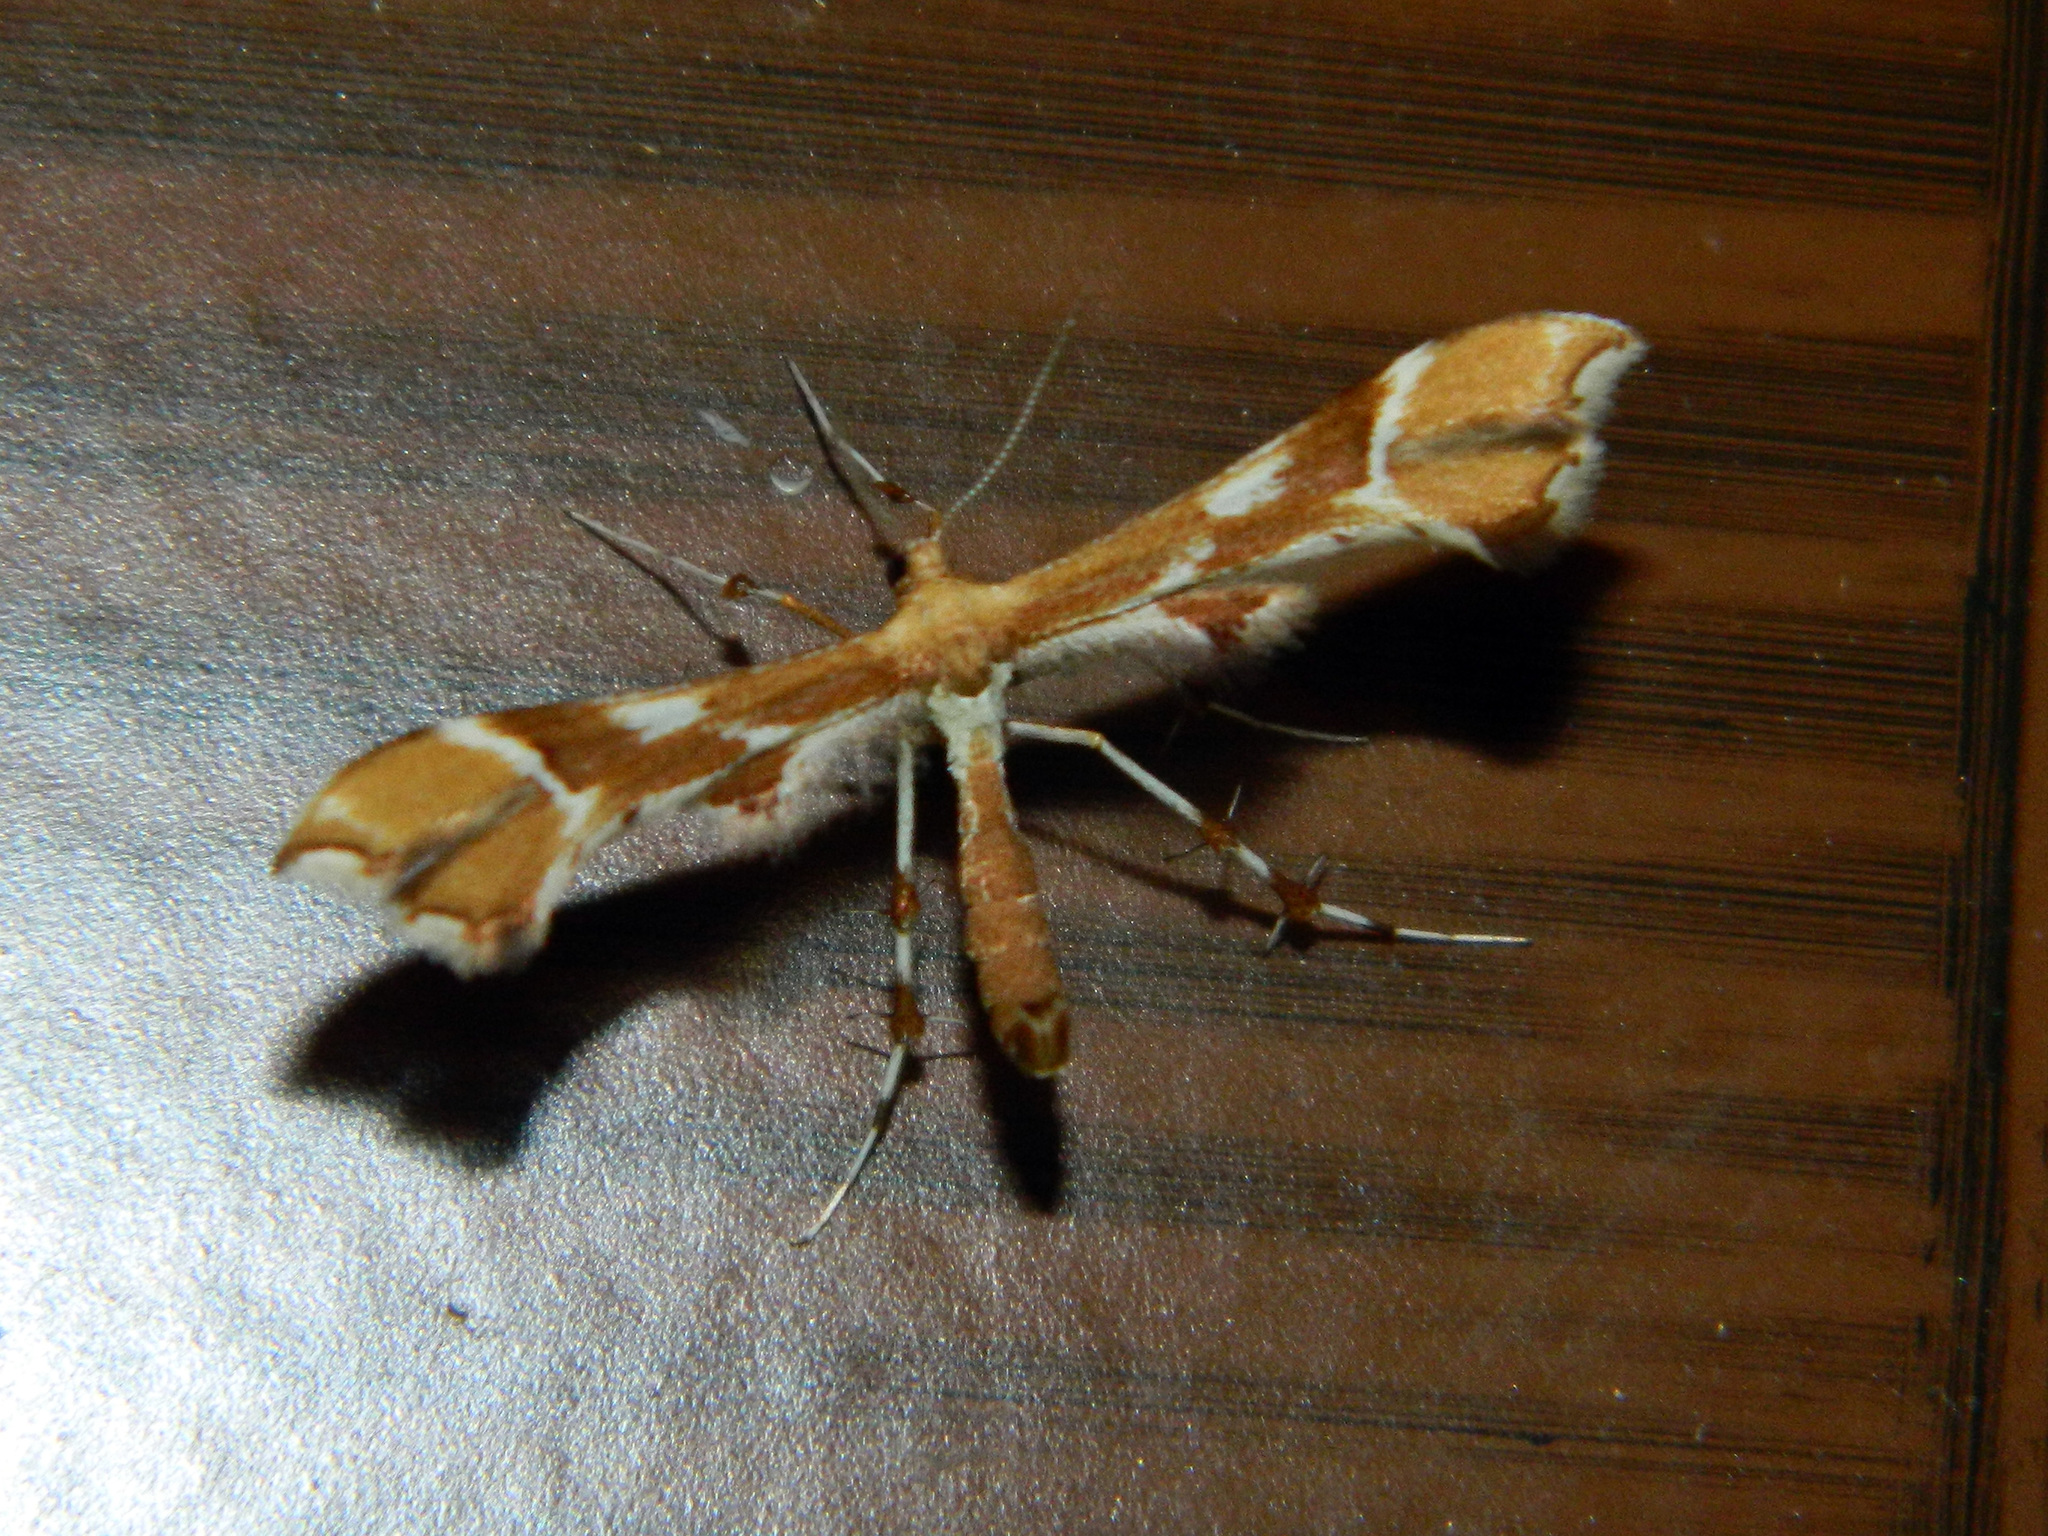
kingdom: Animalia
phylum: Arthropoda
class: Insecta
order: Lepidoptera
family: Pterophoridae
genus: Cnaemidophorus
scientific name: Cnaemidophorus rhododactyla
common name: Rose plume
